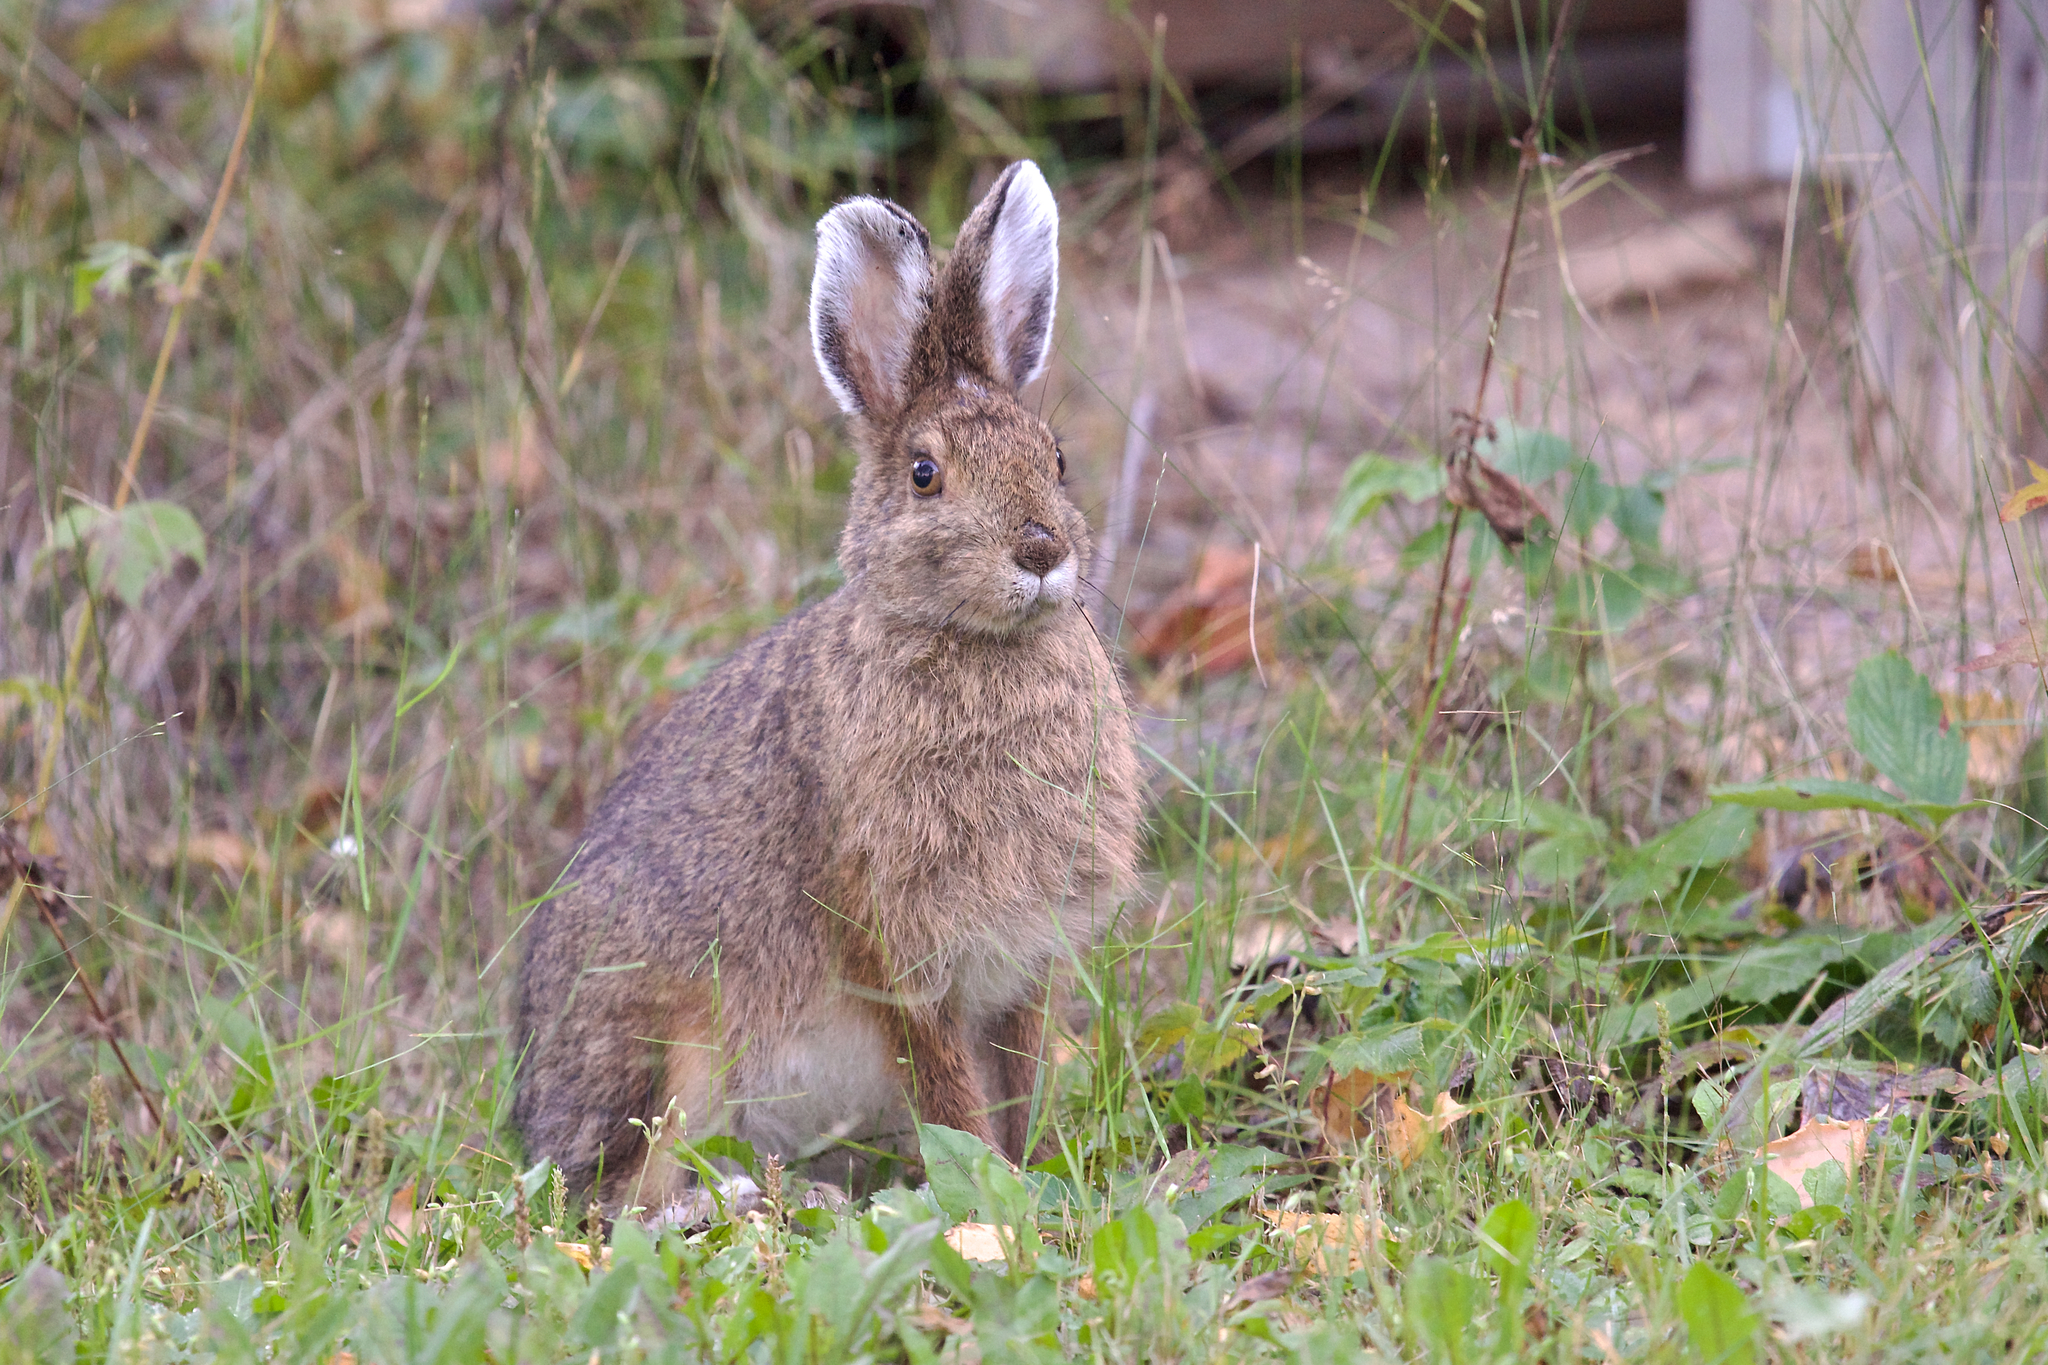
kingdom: Animalia
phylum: Chordata
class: Mammalia
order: Lagomorpha
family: Leporidae
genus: Lepus
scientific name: Lepus americanus
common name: Snowshoe hare
